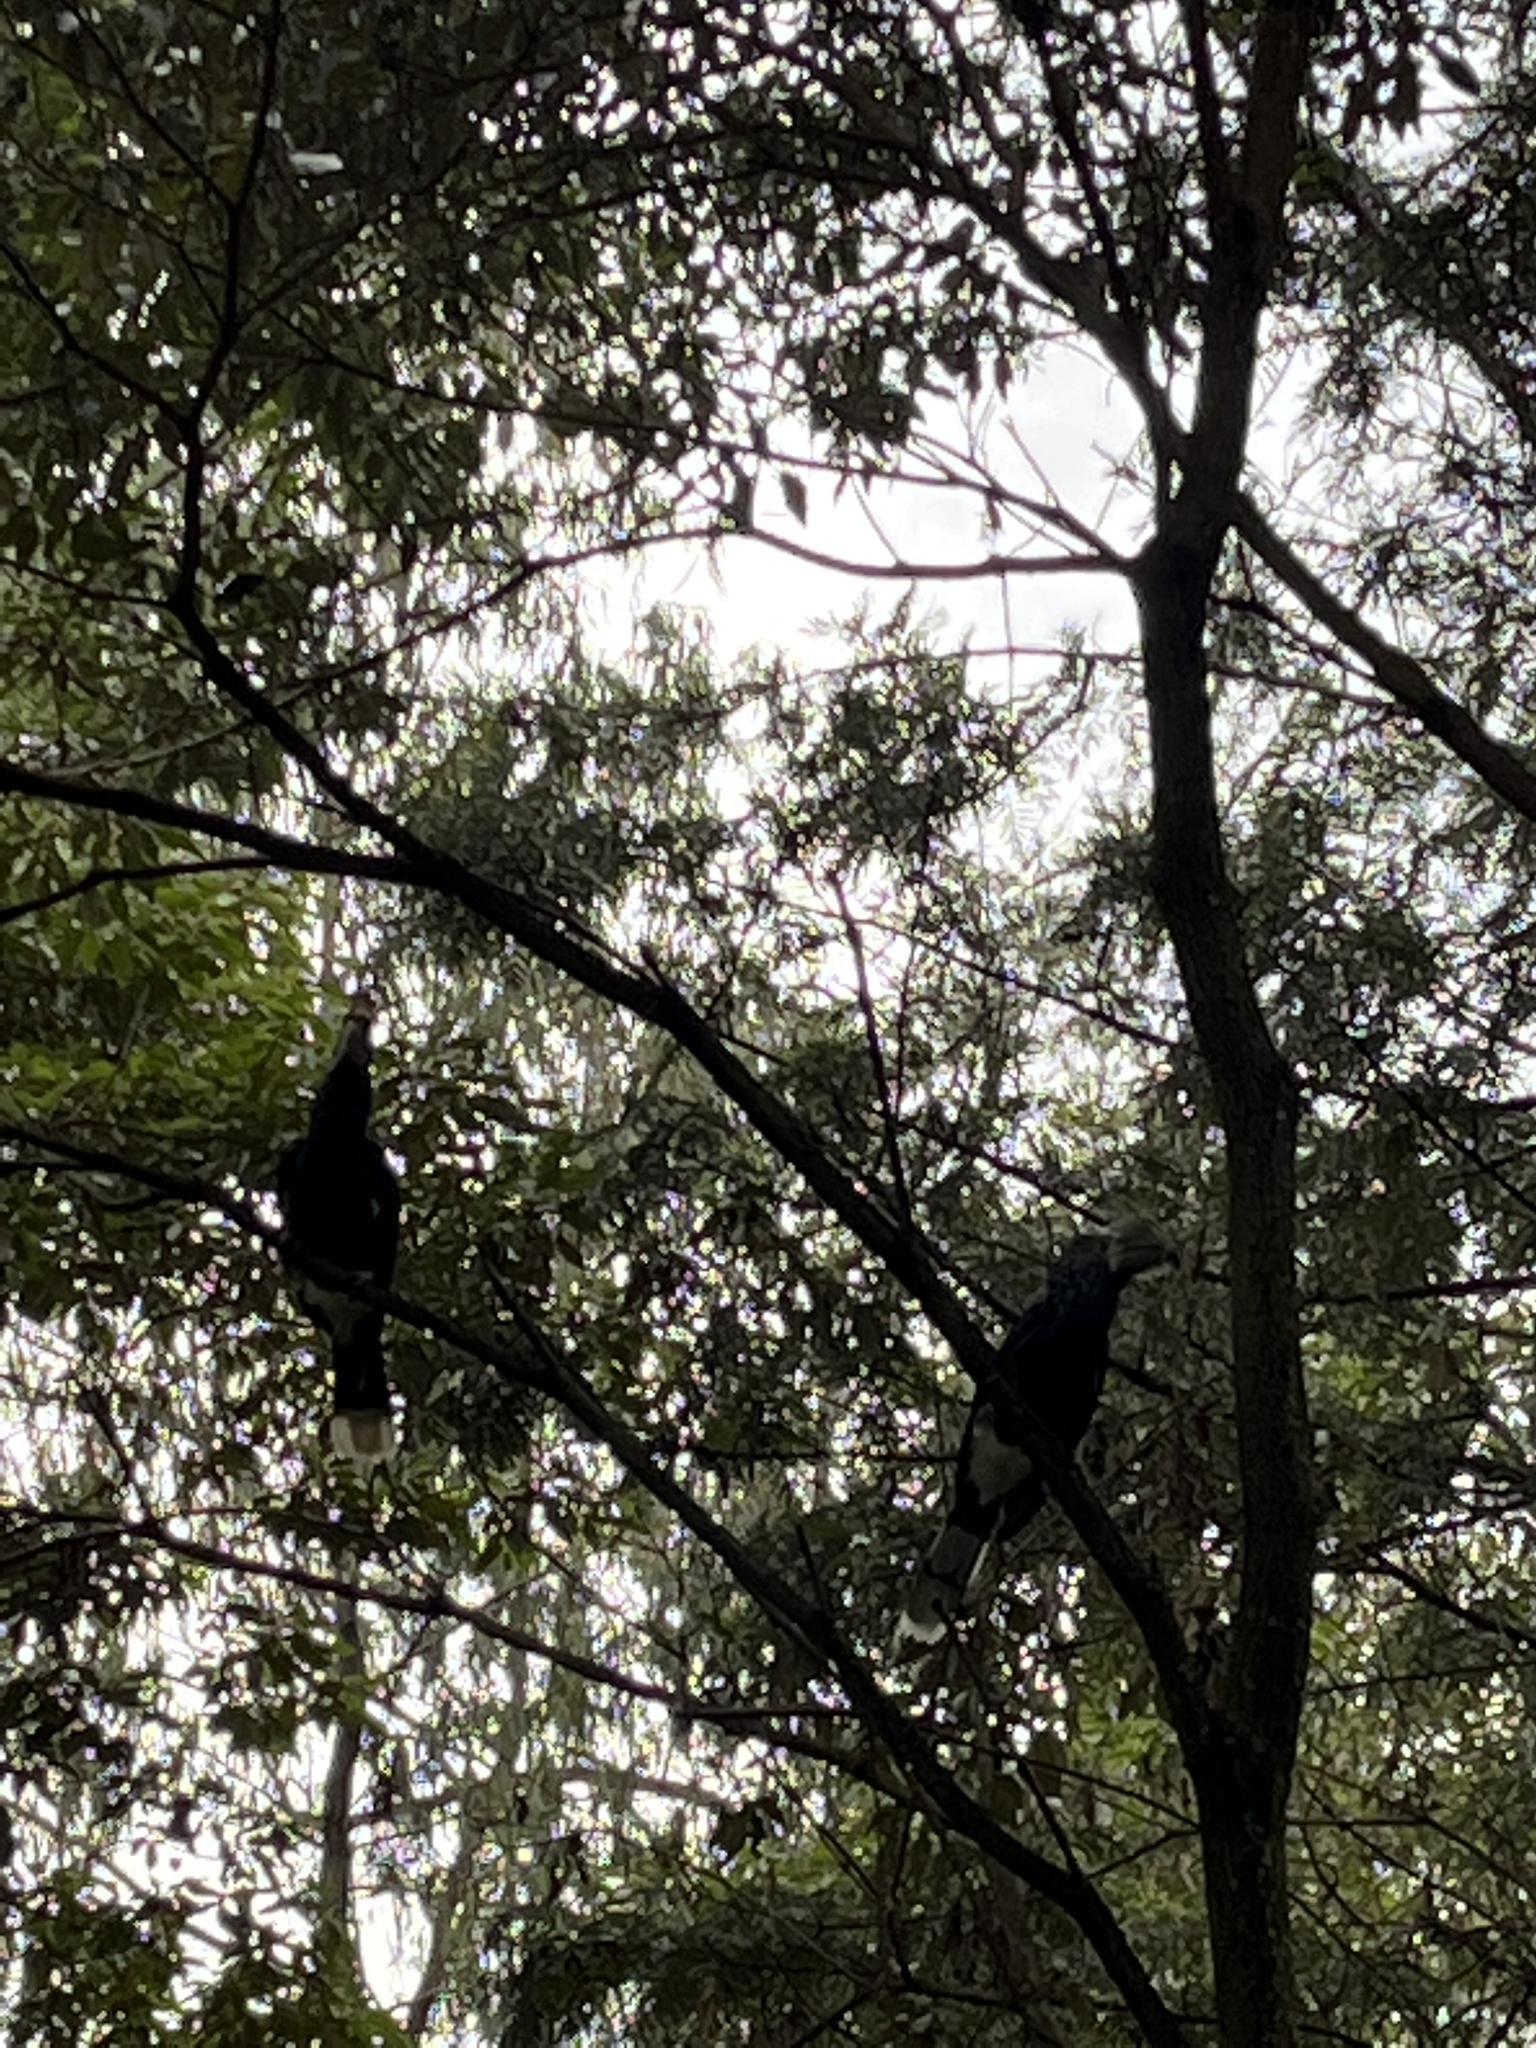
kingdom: Animalia
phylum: Chordata
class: Aves
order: Bucerotiformes
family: Bucerotidae
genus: Bycanistes
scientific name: Bycanistes brevis
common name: Silvery-cheeked hornbill
